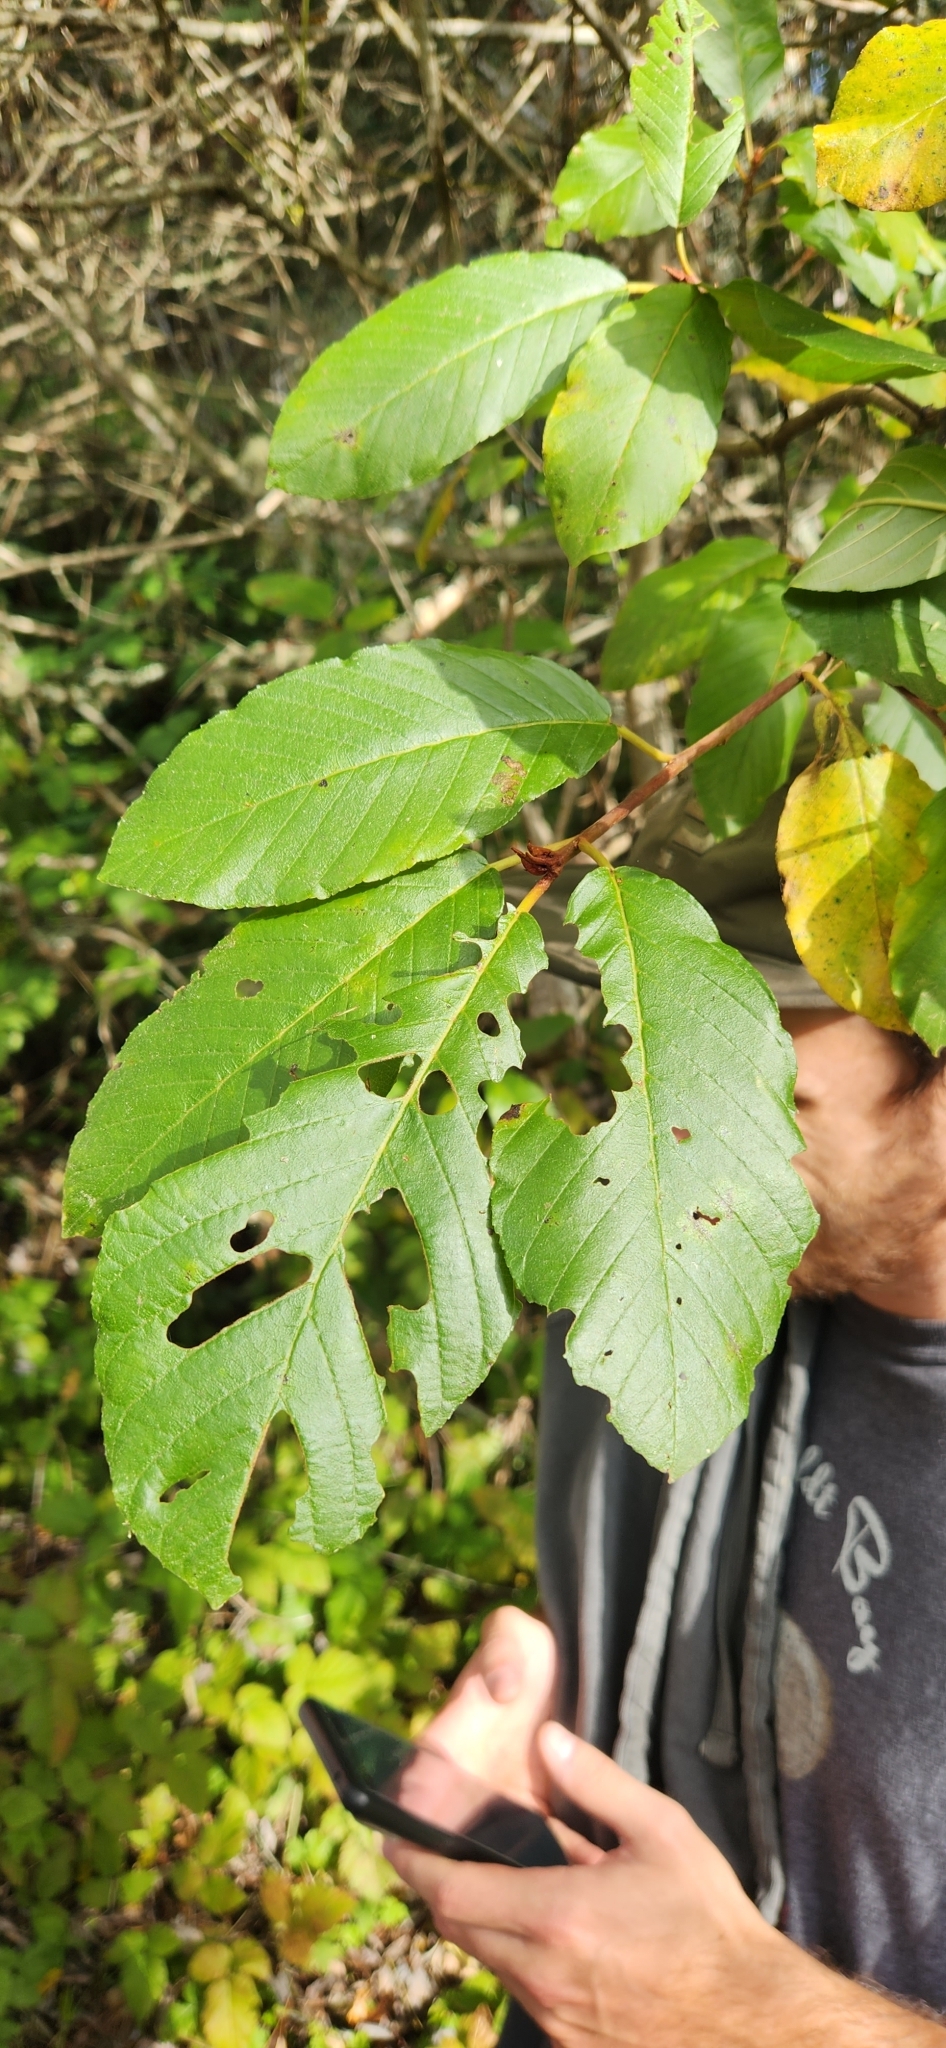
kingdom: Plantae
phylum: Tracheophyta
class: Magnoliopsida
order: Rosales
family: Rhamnaceae
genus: Frangula
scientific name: Frangula purshiana
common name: Cascara buckthorn
